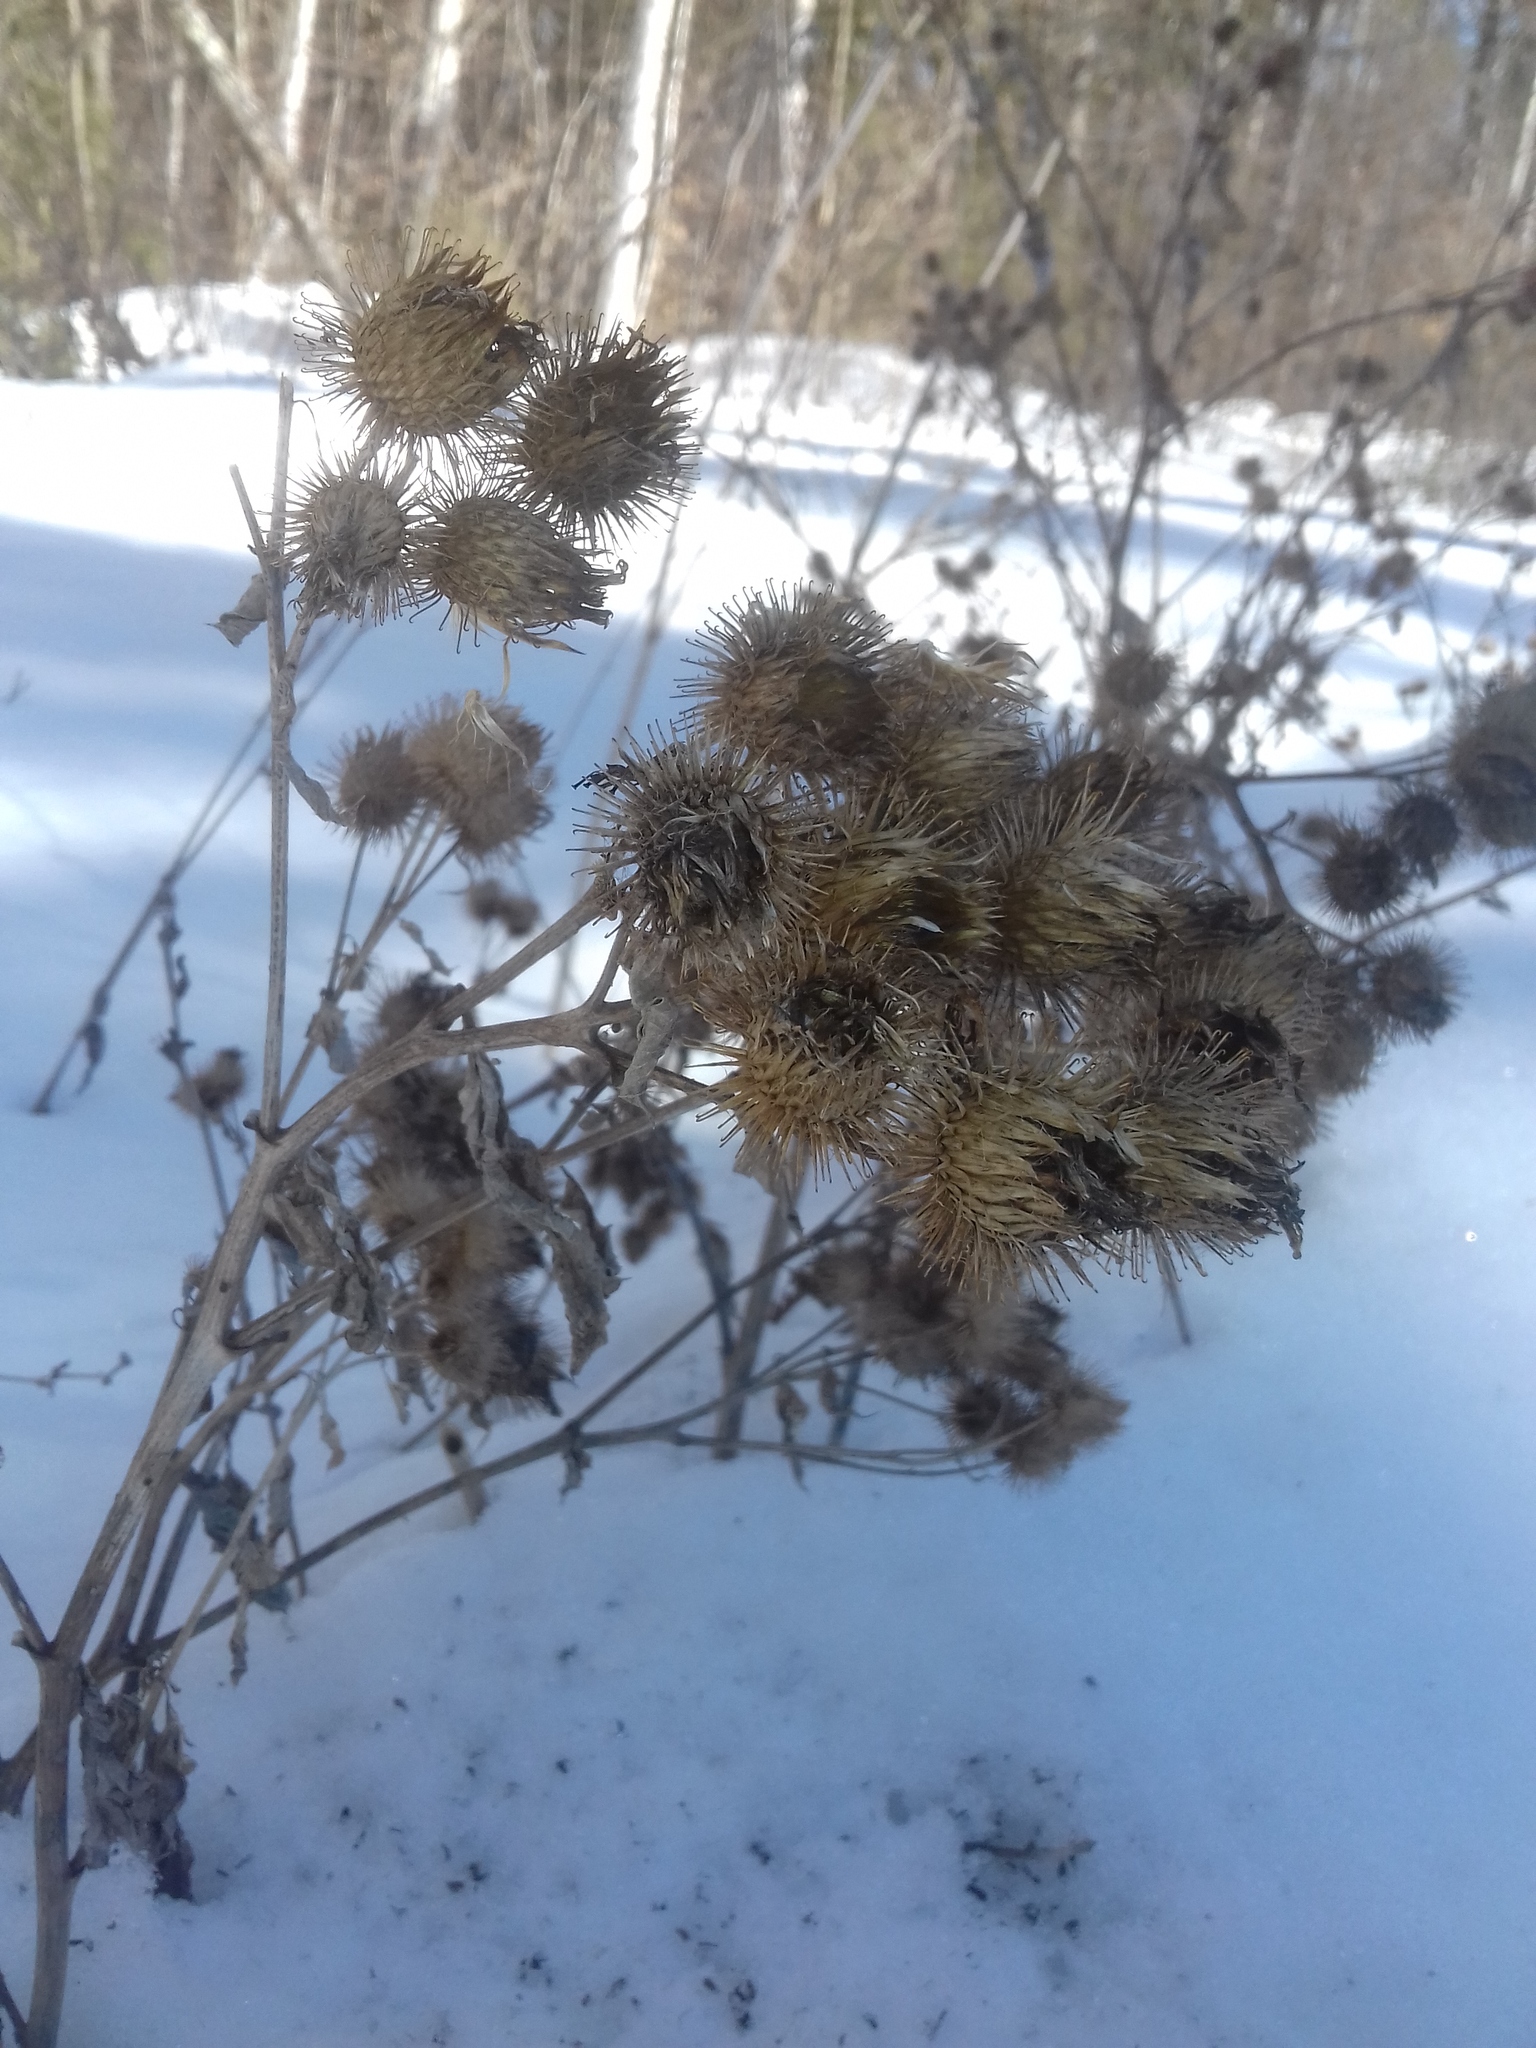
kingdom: Plantae
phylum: Tracheophyta
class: Magnoliopsida
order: Asterales
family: Asteraceae
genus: Arctium
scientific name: Arctium tomentosum
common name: Woolly burdock
